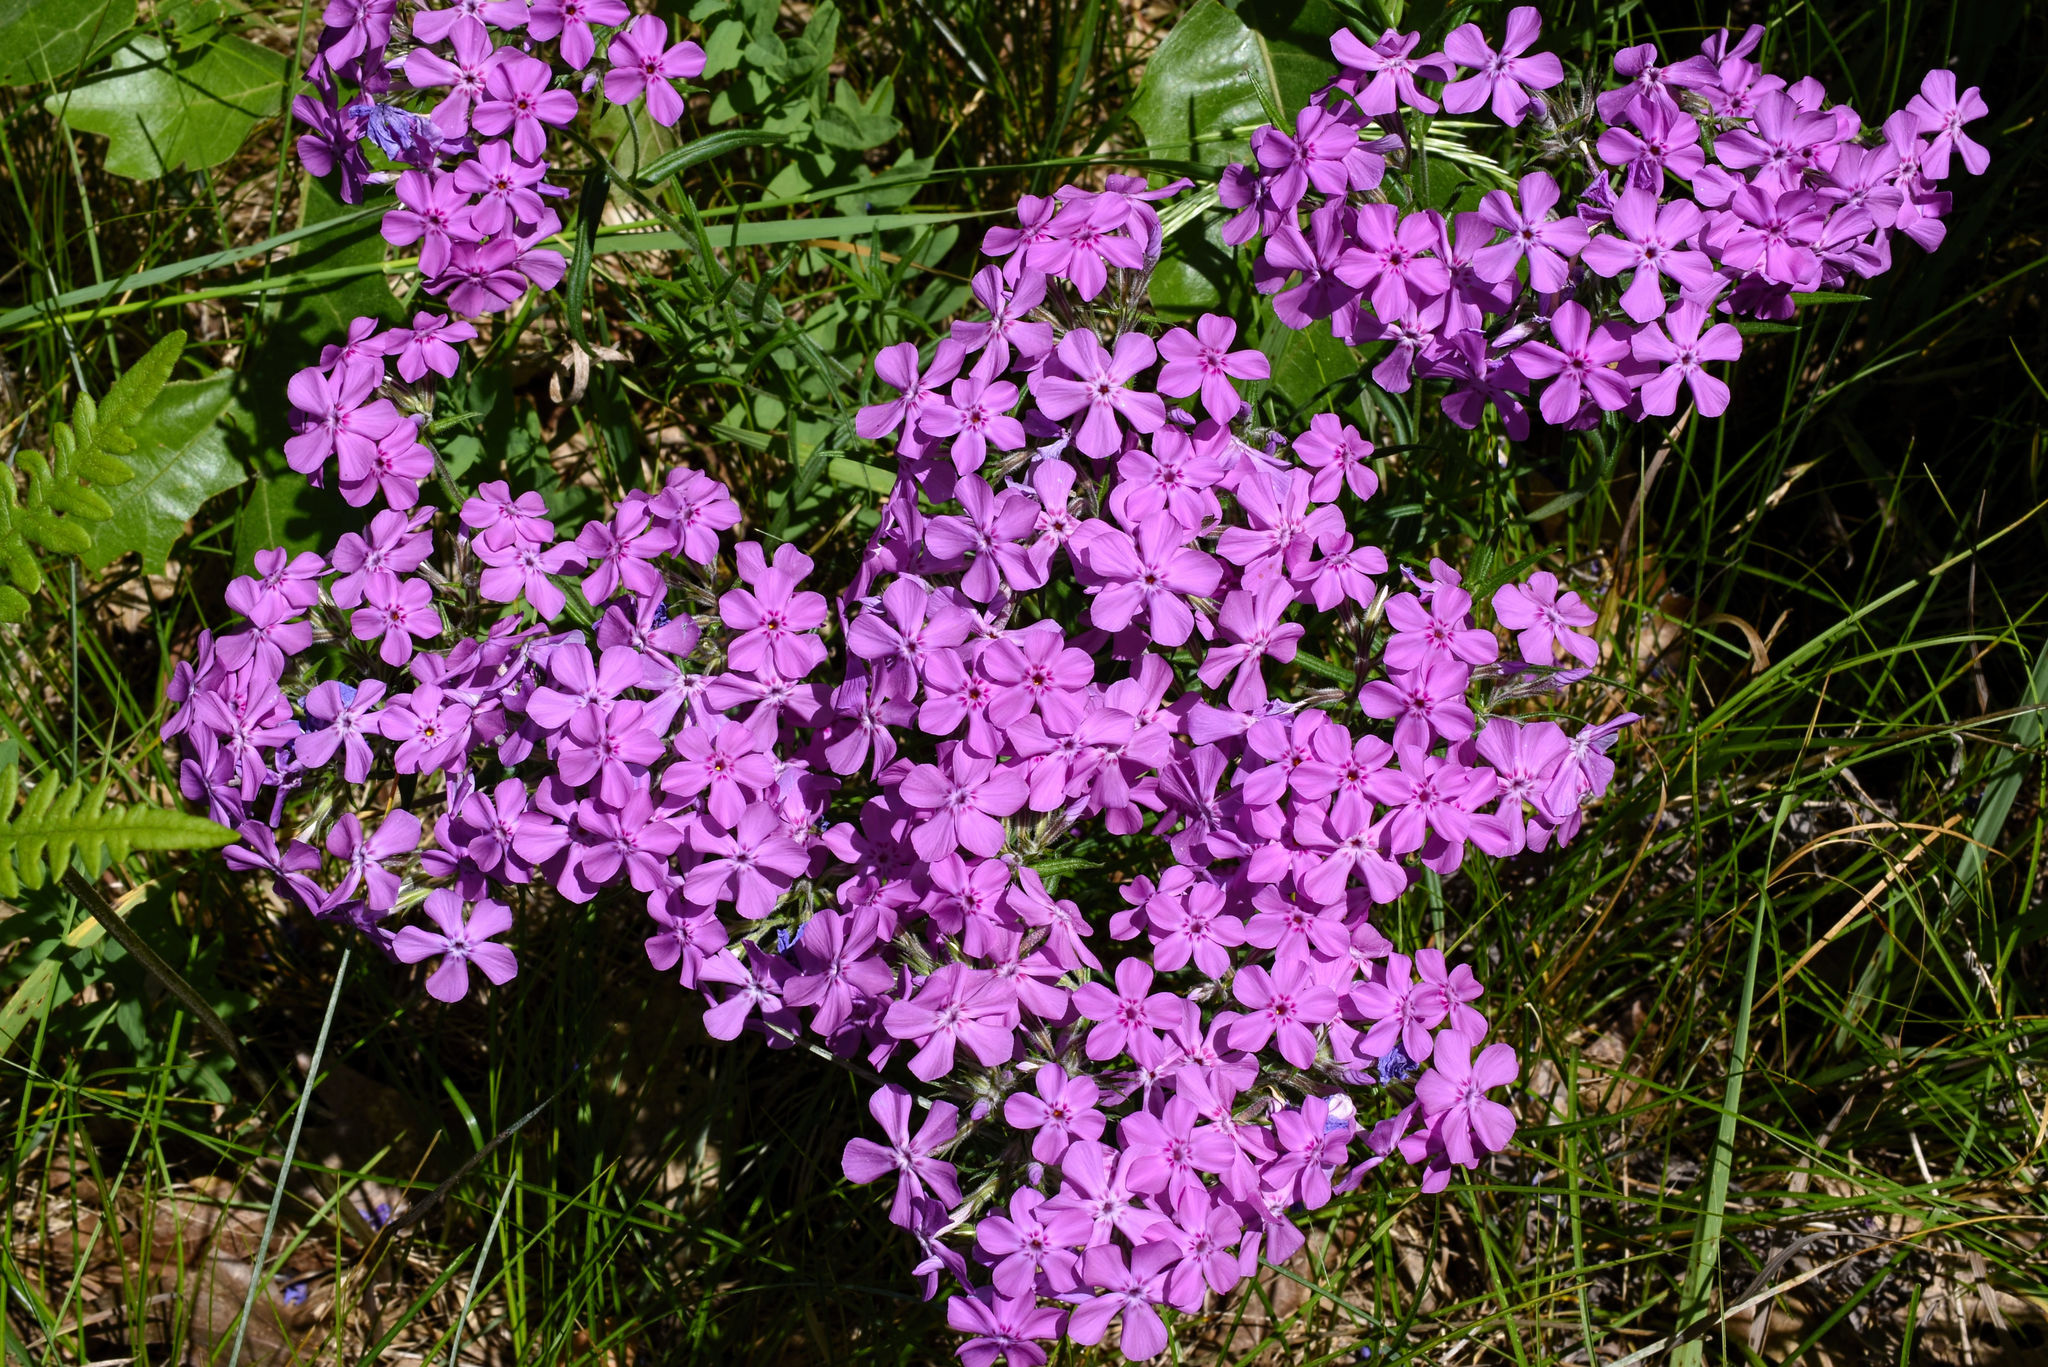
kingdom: Plantae
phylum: Tracheophyta
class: Magnoliopsida
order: Ericales
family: Polemoniaceae
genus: Phlox
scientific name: Phlox pilosa
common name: Prairie phlox
